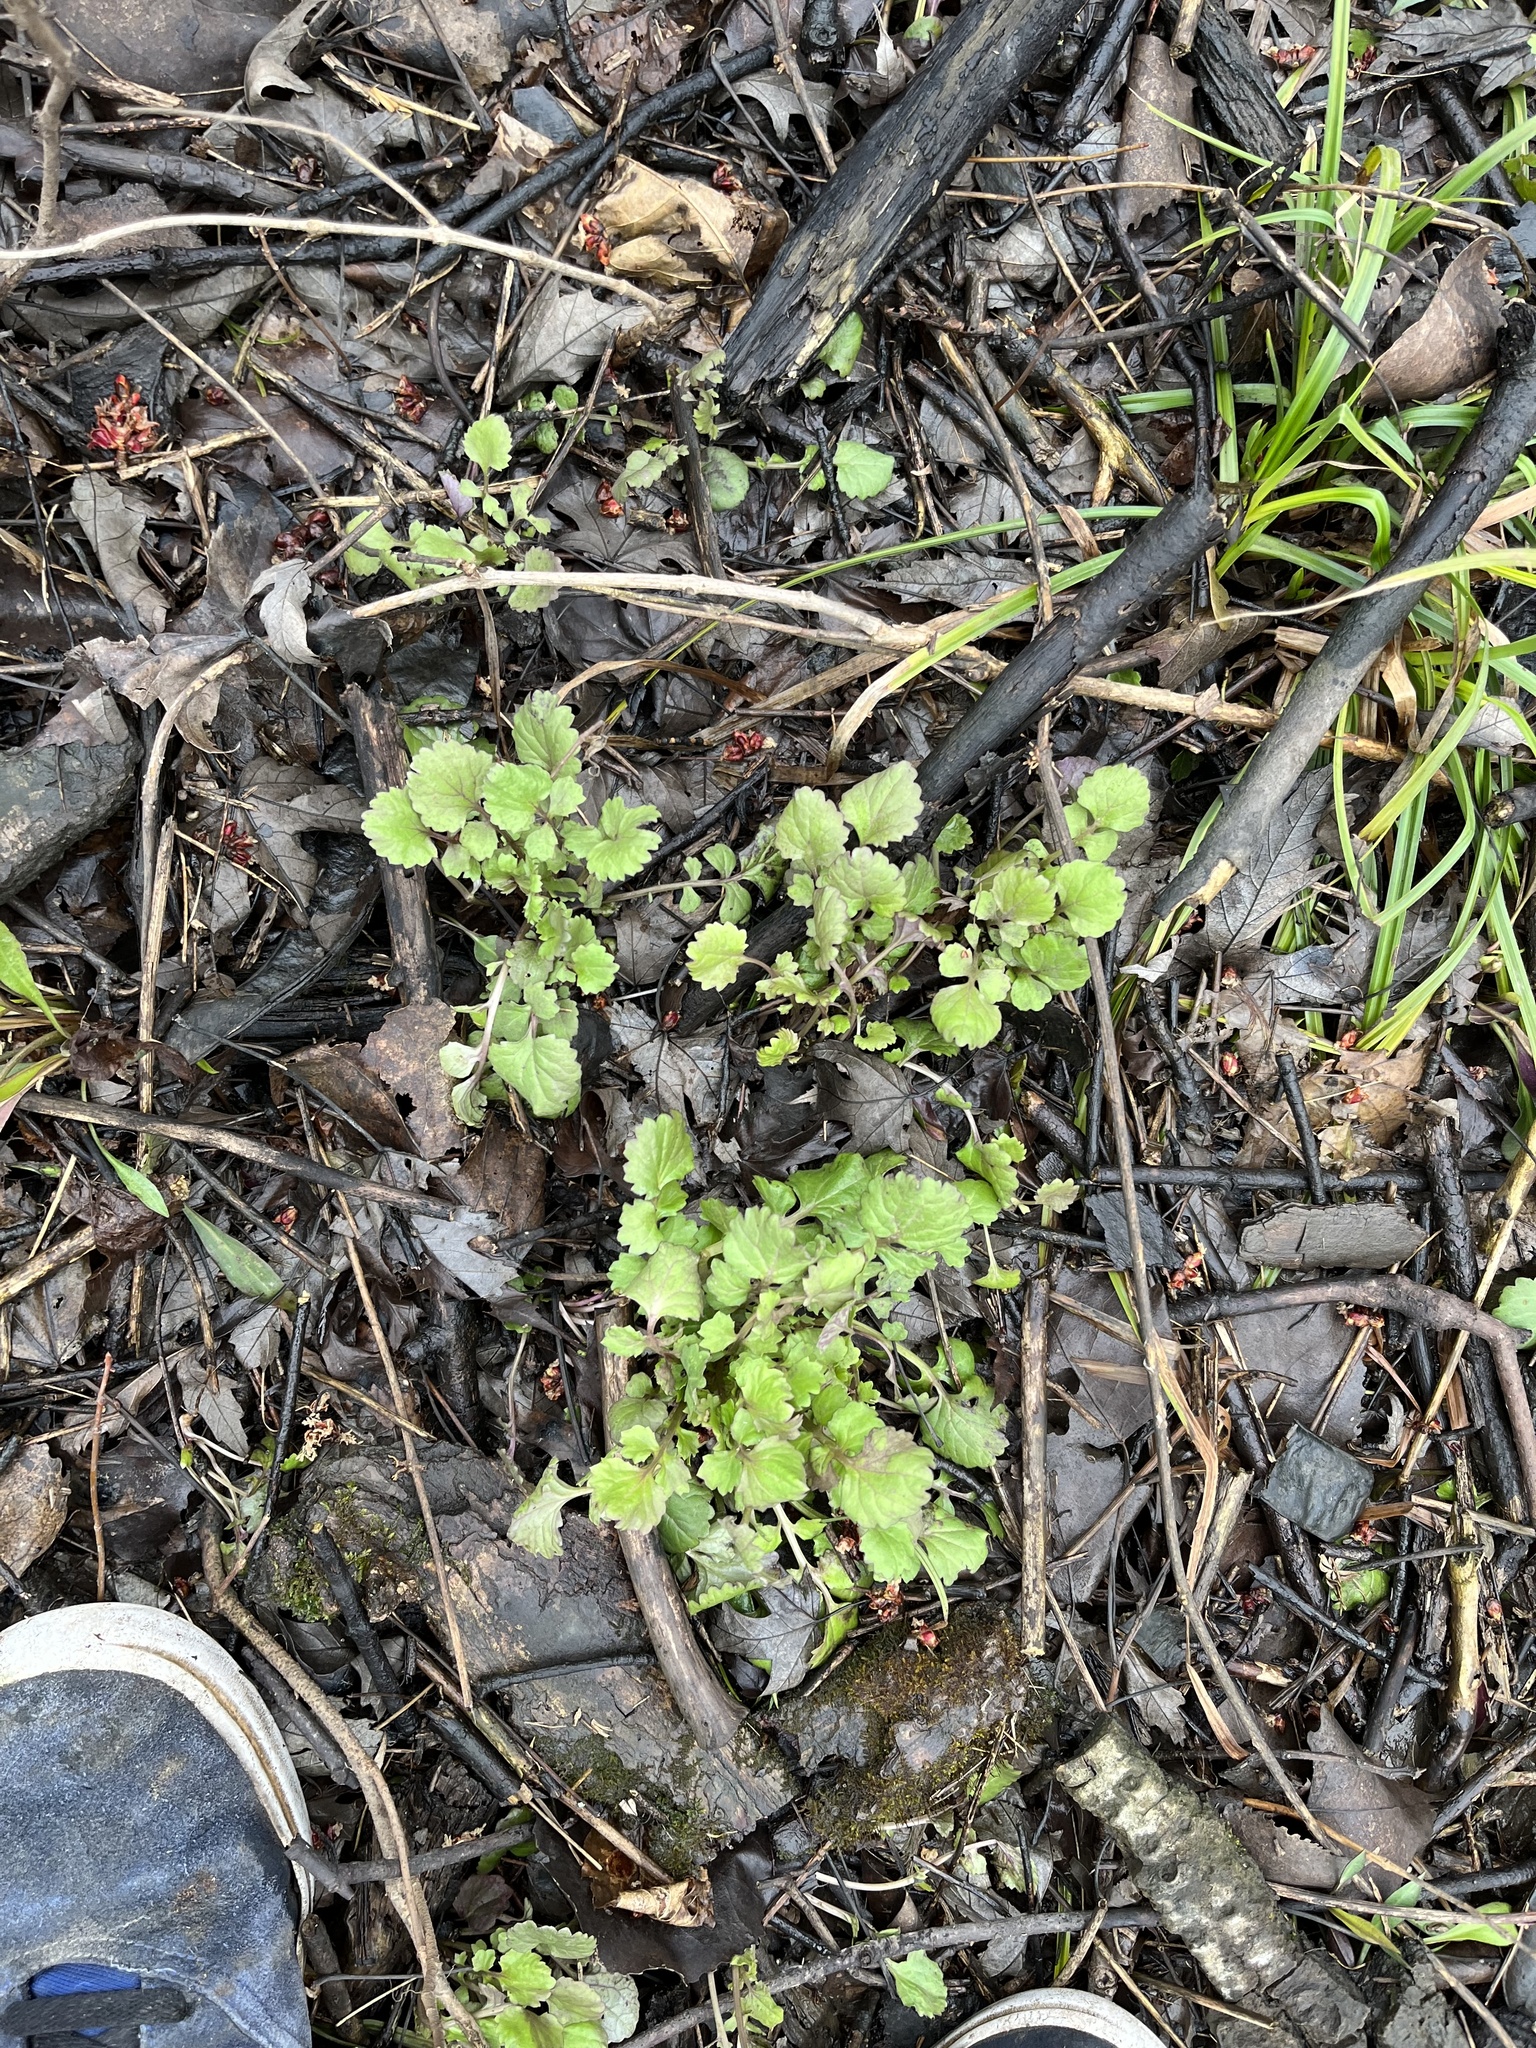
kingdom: Plantae
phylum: Tracheophyta
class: Magnoliopsida
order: Asterales
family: Asteraceae
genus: Packera
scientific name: Packera glabella
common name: Butterweed
